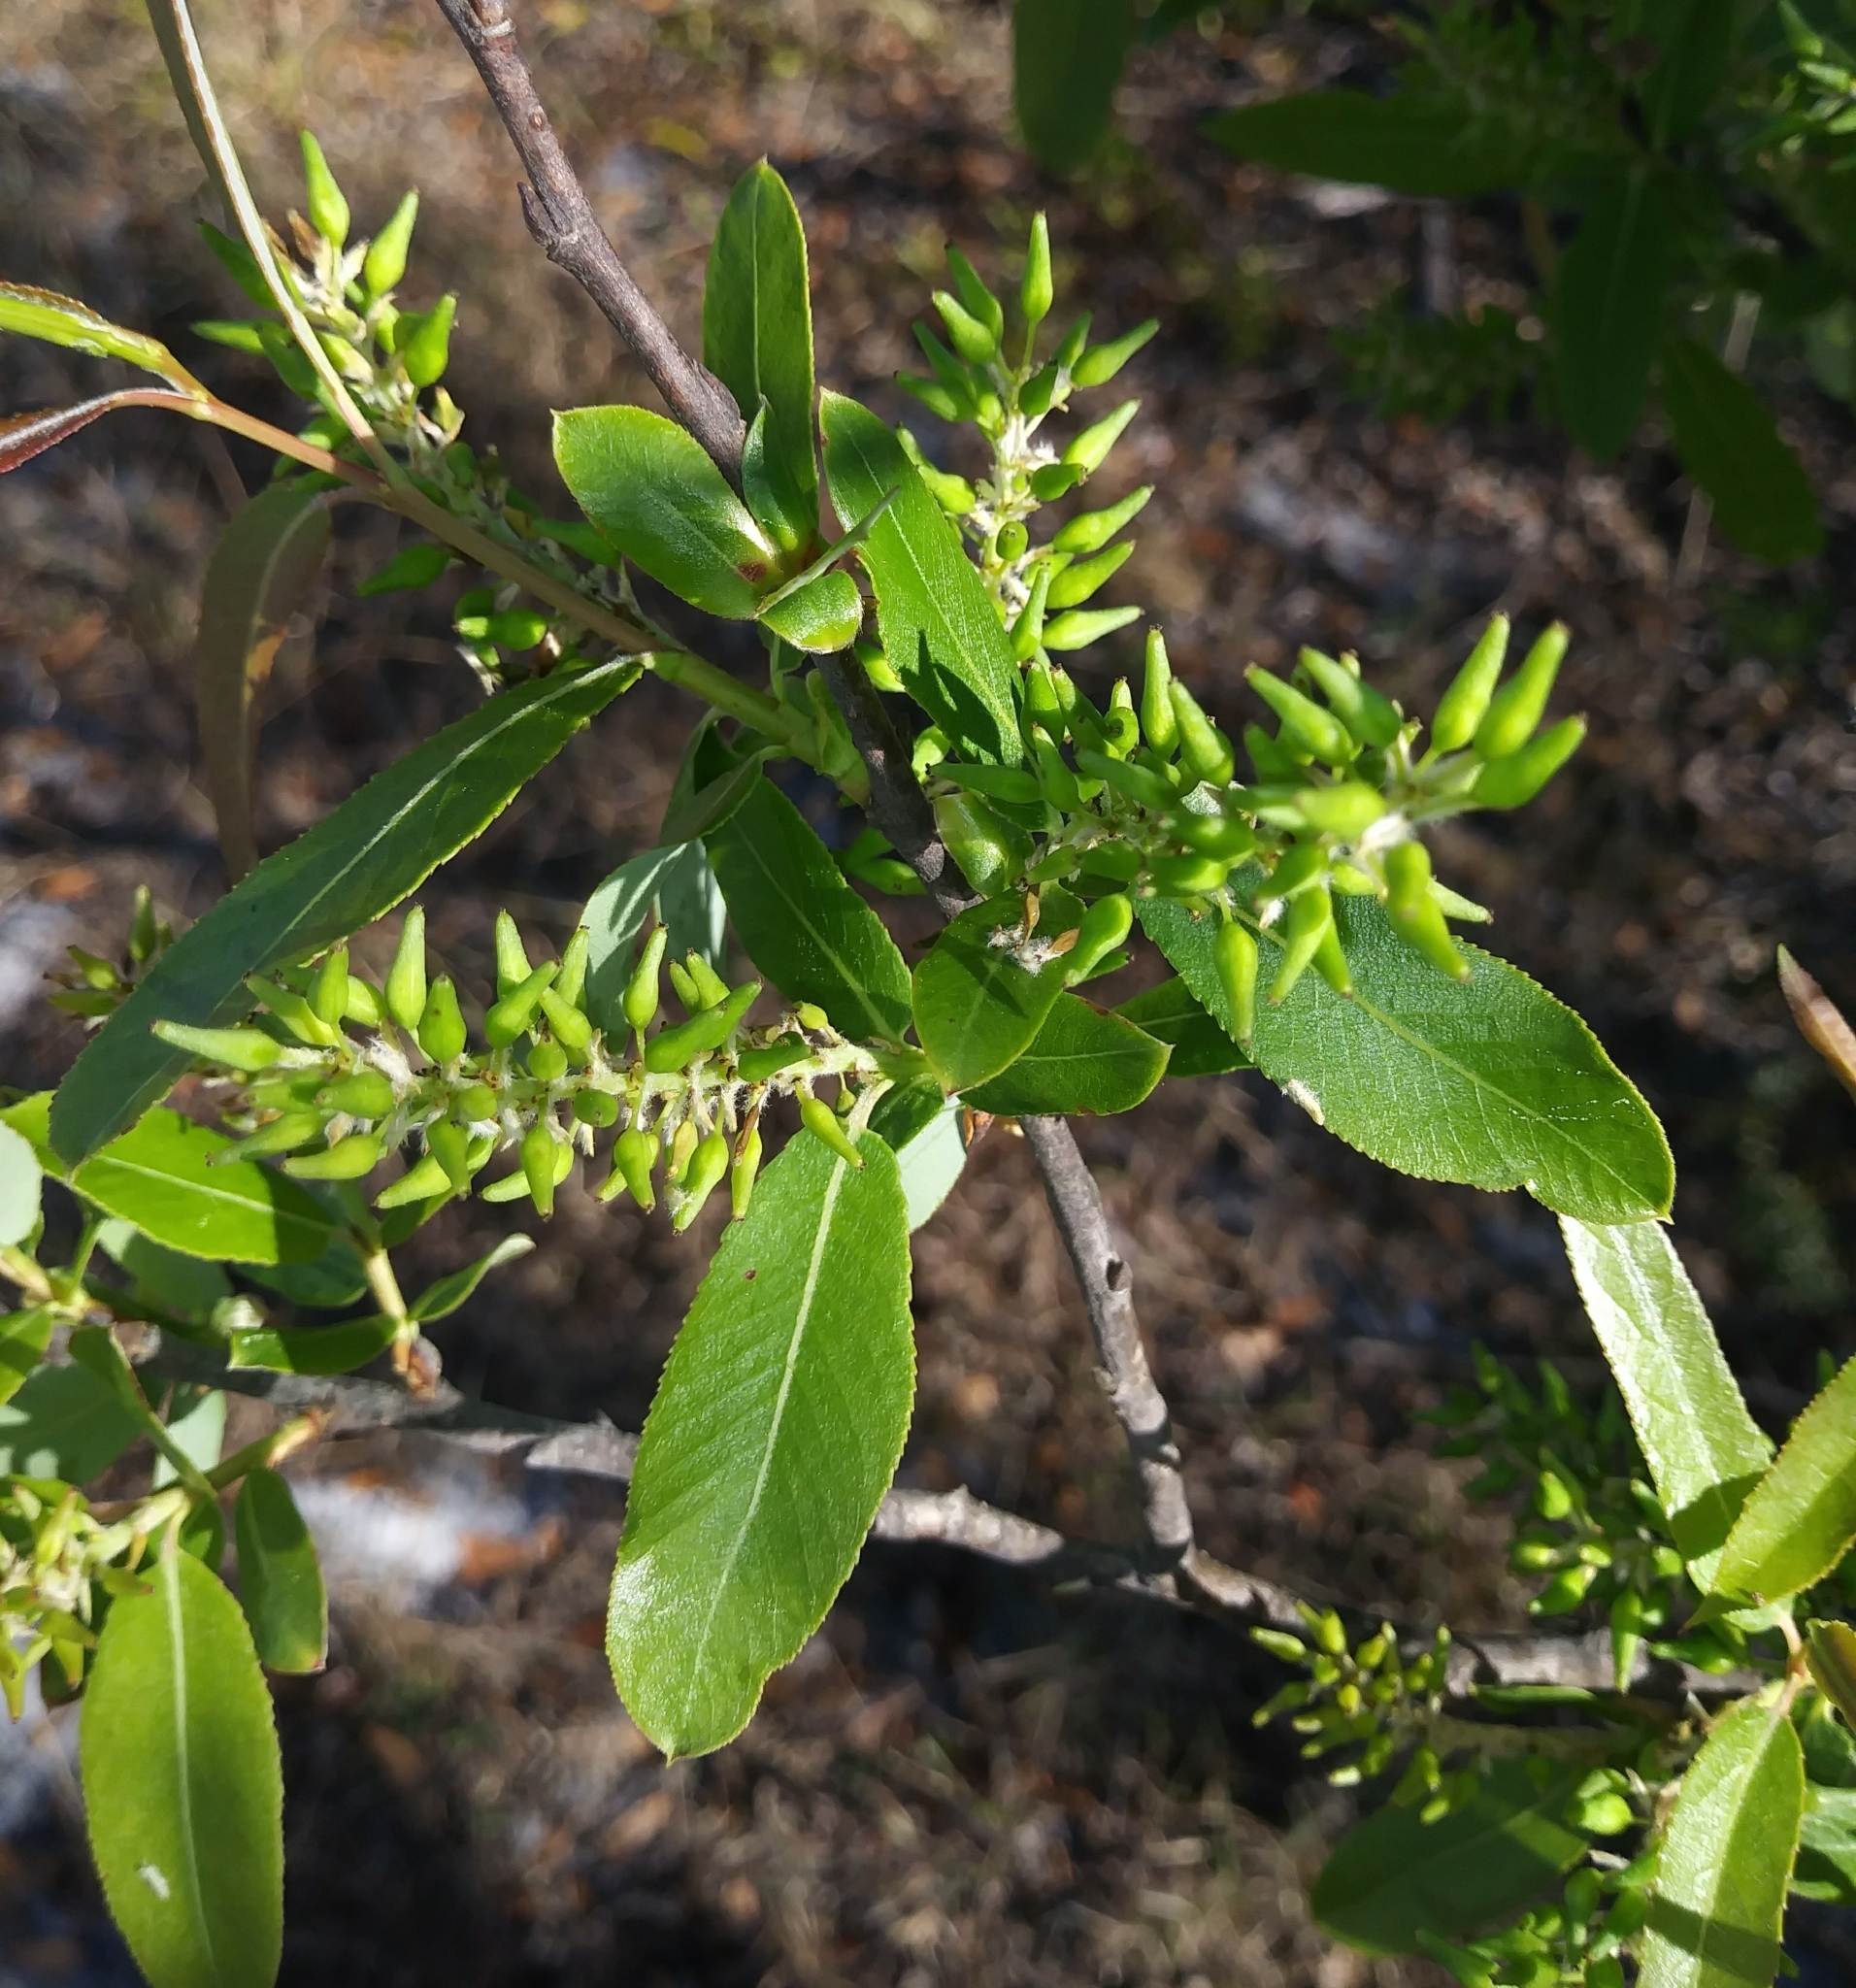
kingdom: Plantae
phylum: Tracheophyta
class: Magnoliopsida
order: Malpighiales
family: Salicaceae
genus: Salix
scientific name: Salix caroliniana
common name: Carolina willow
